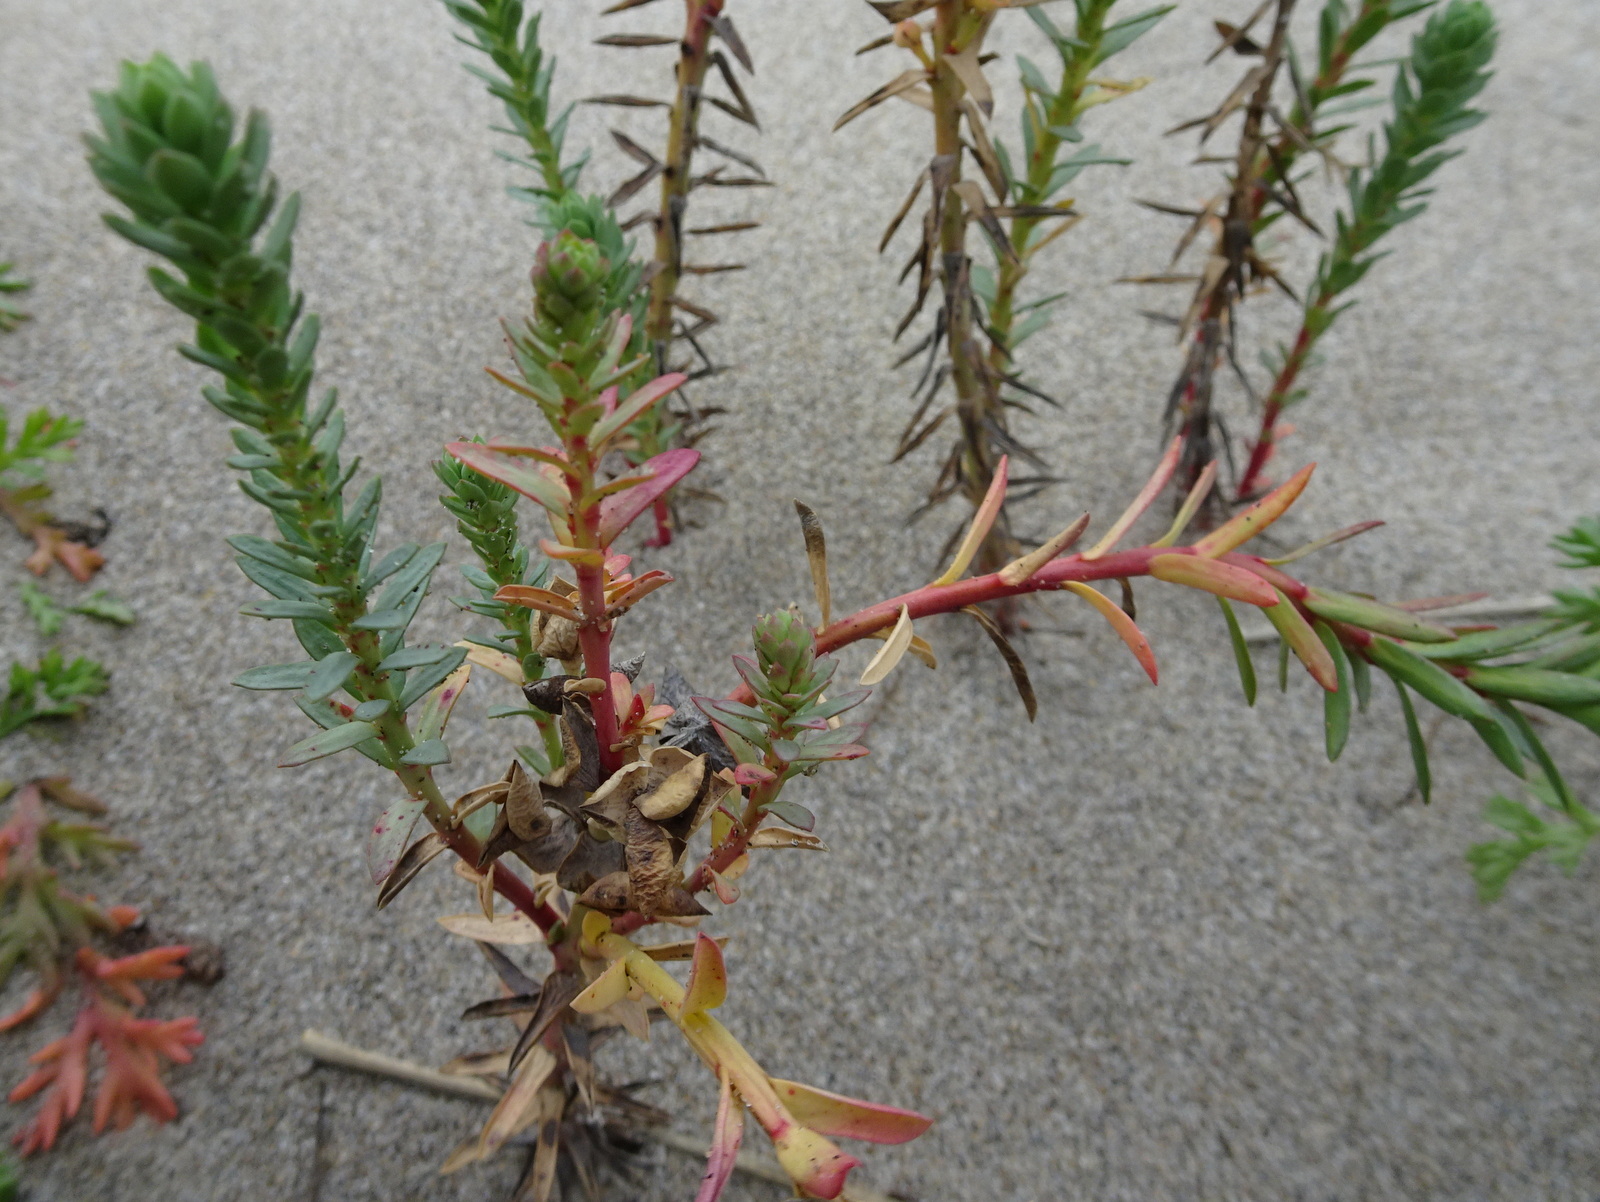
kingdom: Plantae
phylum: Tracheophyta
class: Magnoliopsida
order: Malpighiales
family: Euphorbiaceae
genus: Euphorbia
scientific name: Euphorbia paralias
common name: Sea spurge
